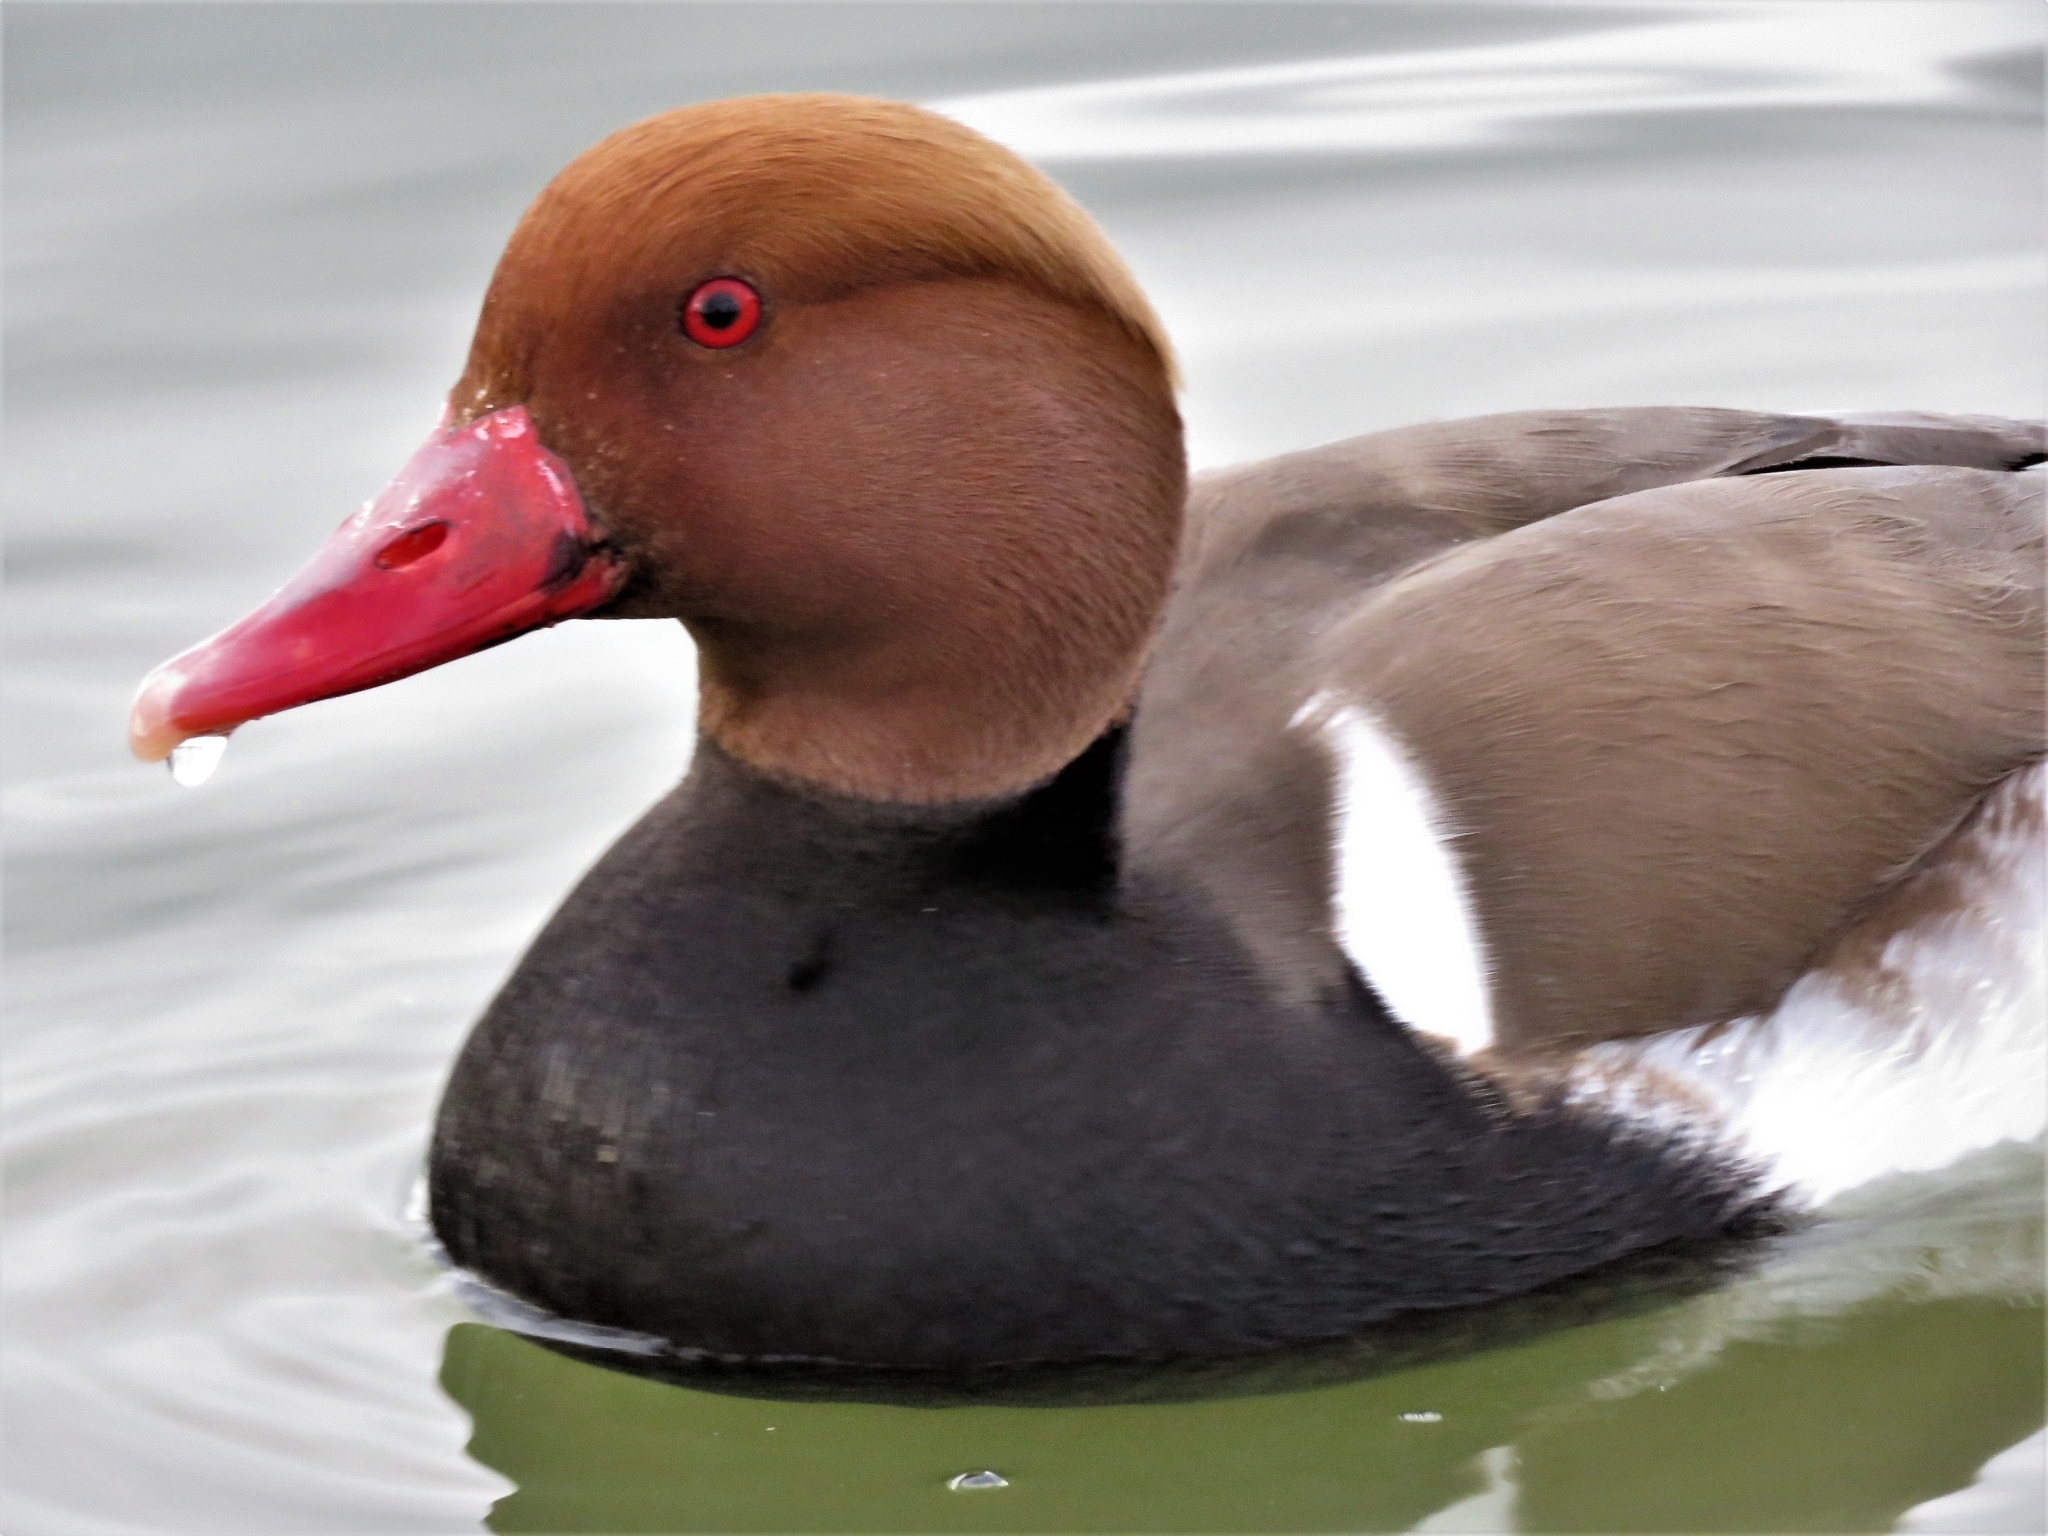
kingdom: Animalia
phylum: Chordata
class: Aves
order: Anseriformes
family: Anatidae
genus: Netta
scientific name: Netta rufina
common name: Red-crested pochard
